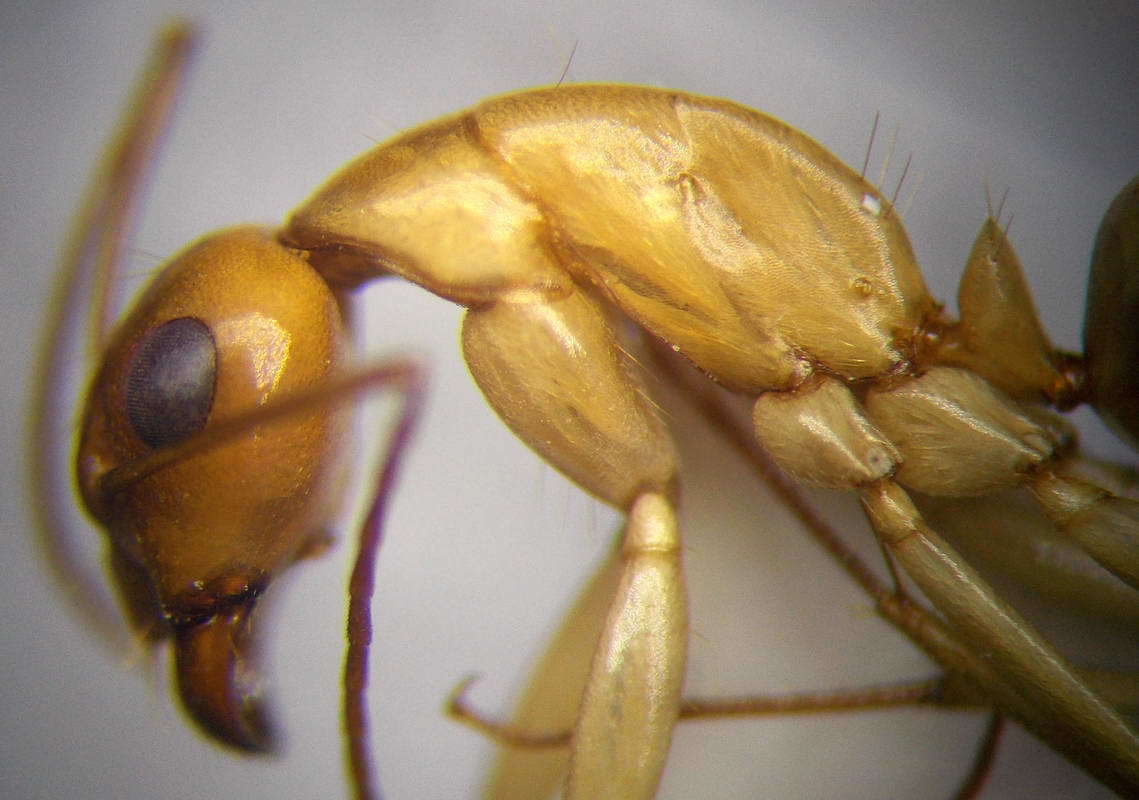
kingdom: Animalia
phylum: Arthropoda
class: Insecta
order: Hymenoptera
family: Formicidae
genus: Camponotus
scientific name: Camponotus turkestanus
